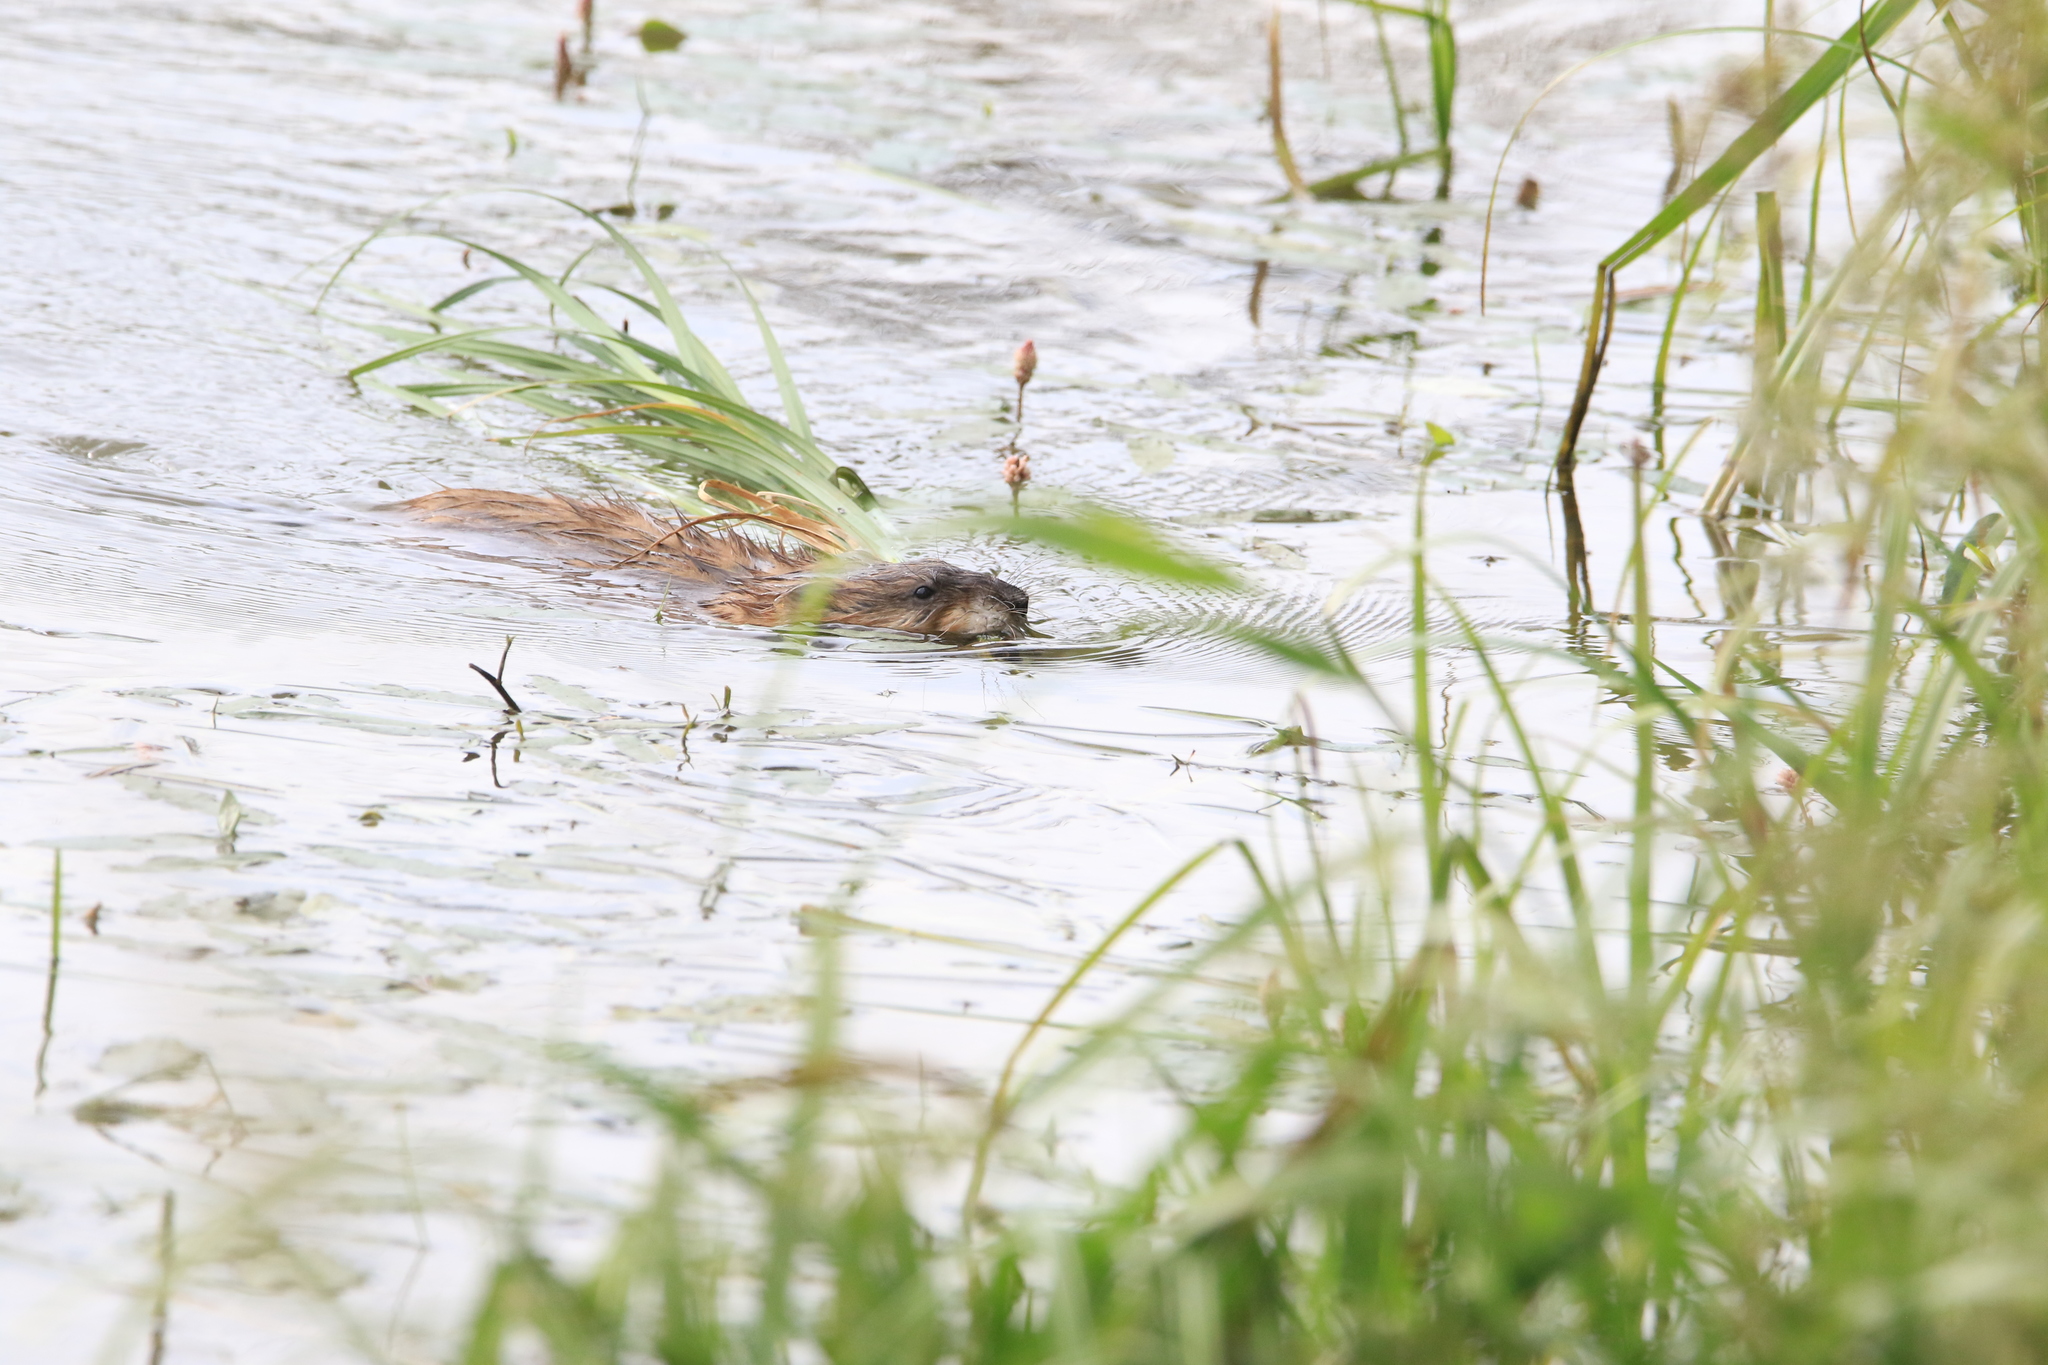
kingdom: Animalia
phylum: Chordata
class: Mammalia
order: Rodentia
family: Cricetidae
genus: Ondatra
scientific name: Ondatra zibethicus
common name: Muskrat
